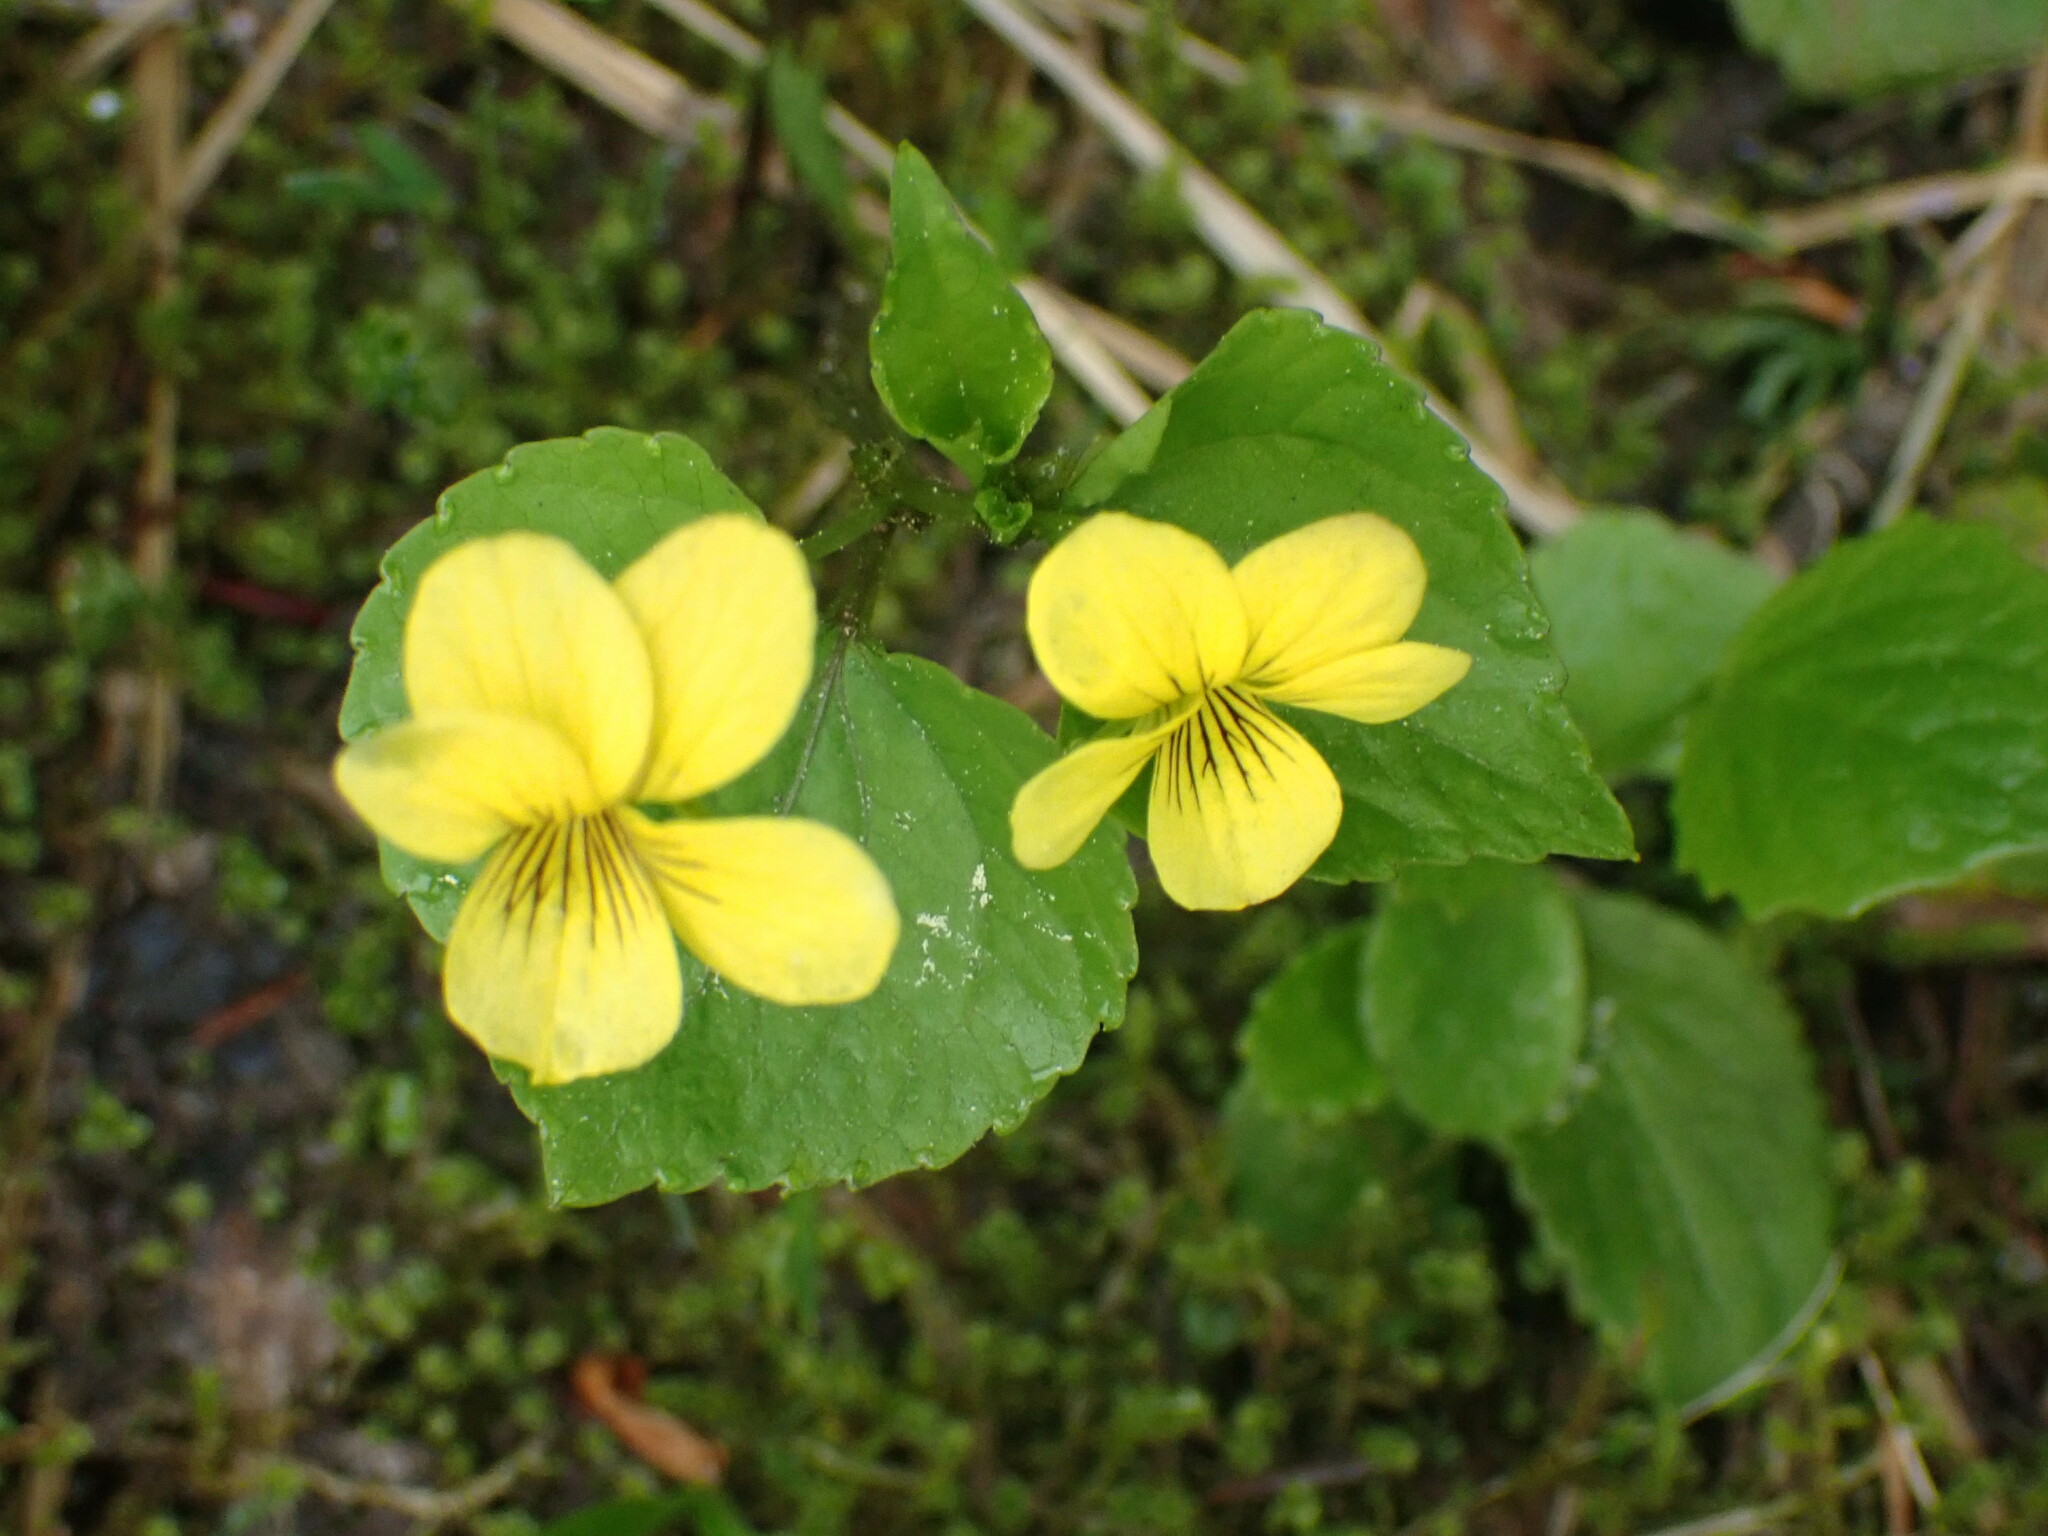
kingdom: Plantae
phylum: Tracheophyta
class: Magnoliopsida
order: Malpighiales
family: Violaceae
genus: Viola
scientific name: Viola glabella
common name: Stream violet
